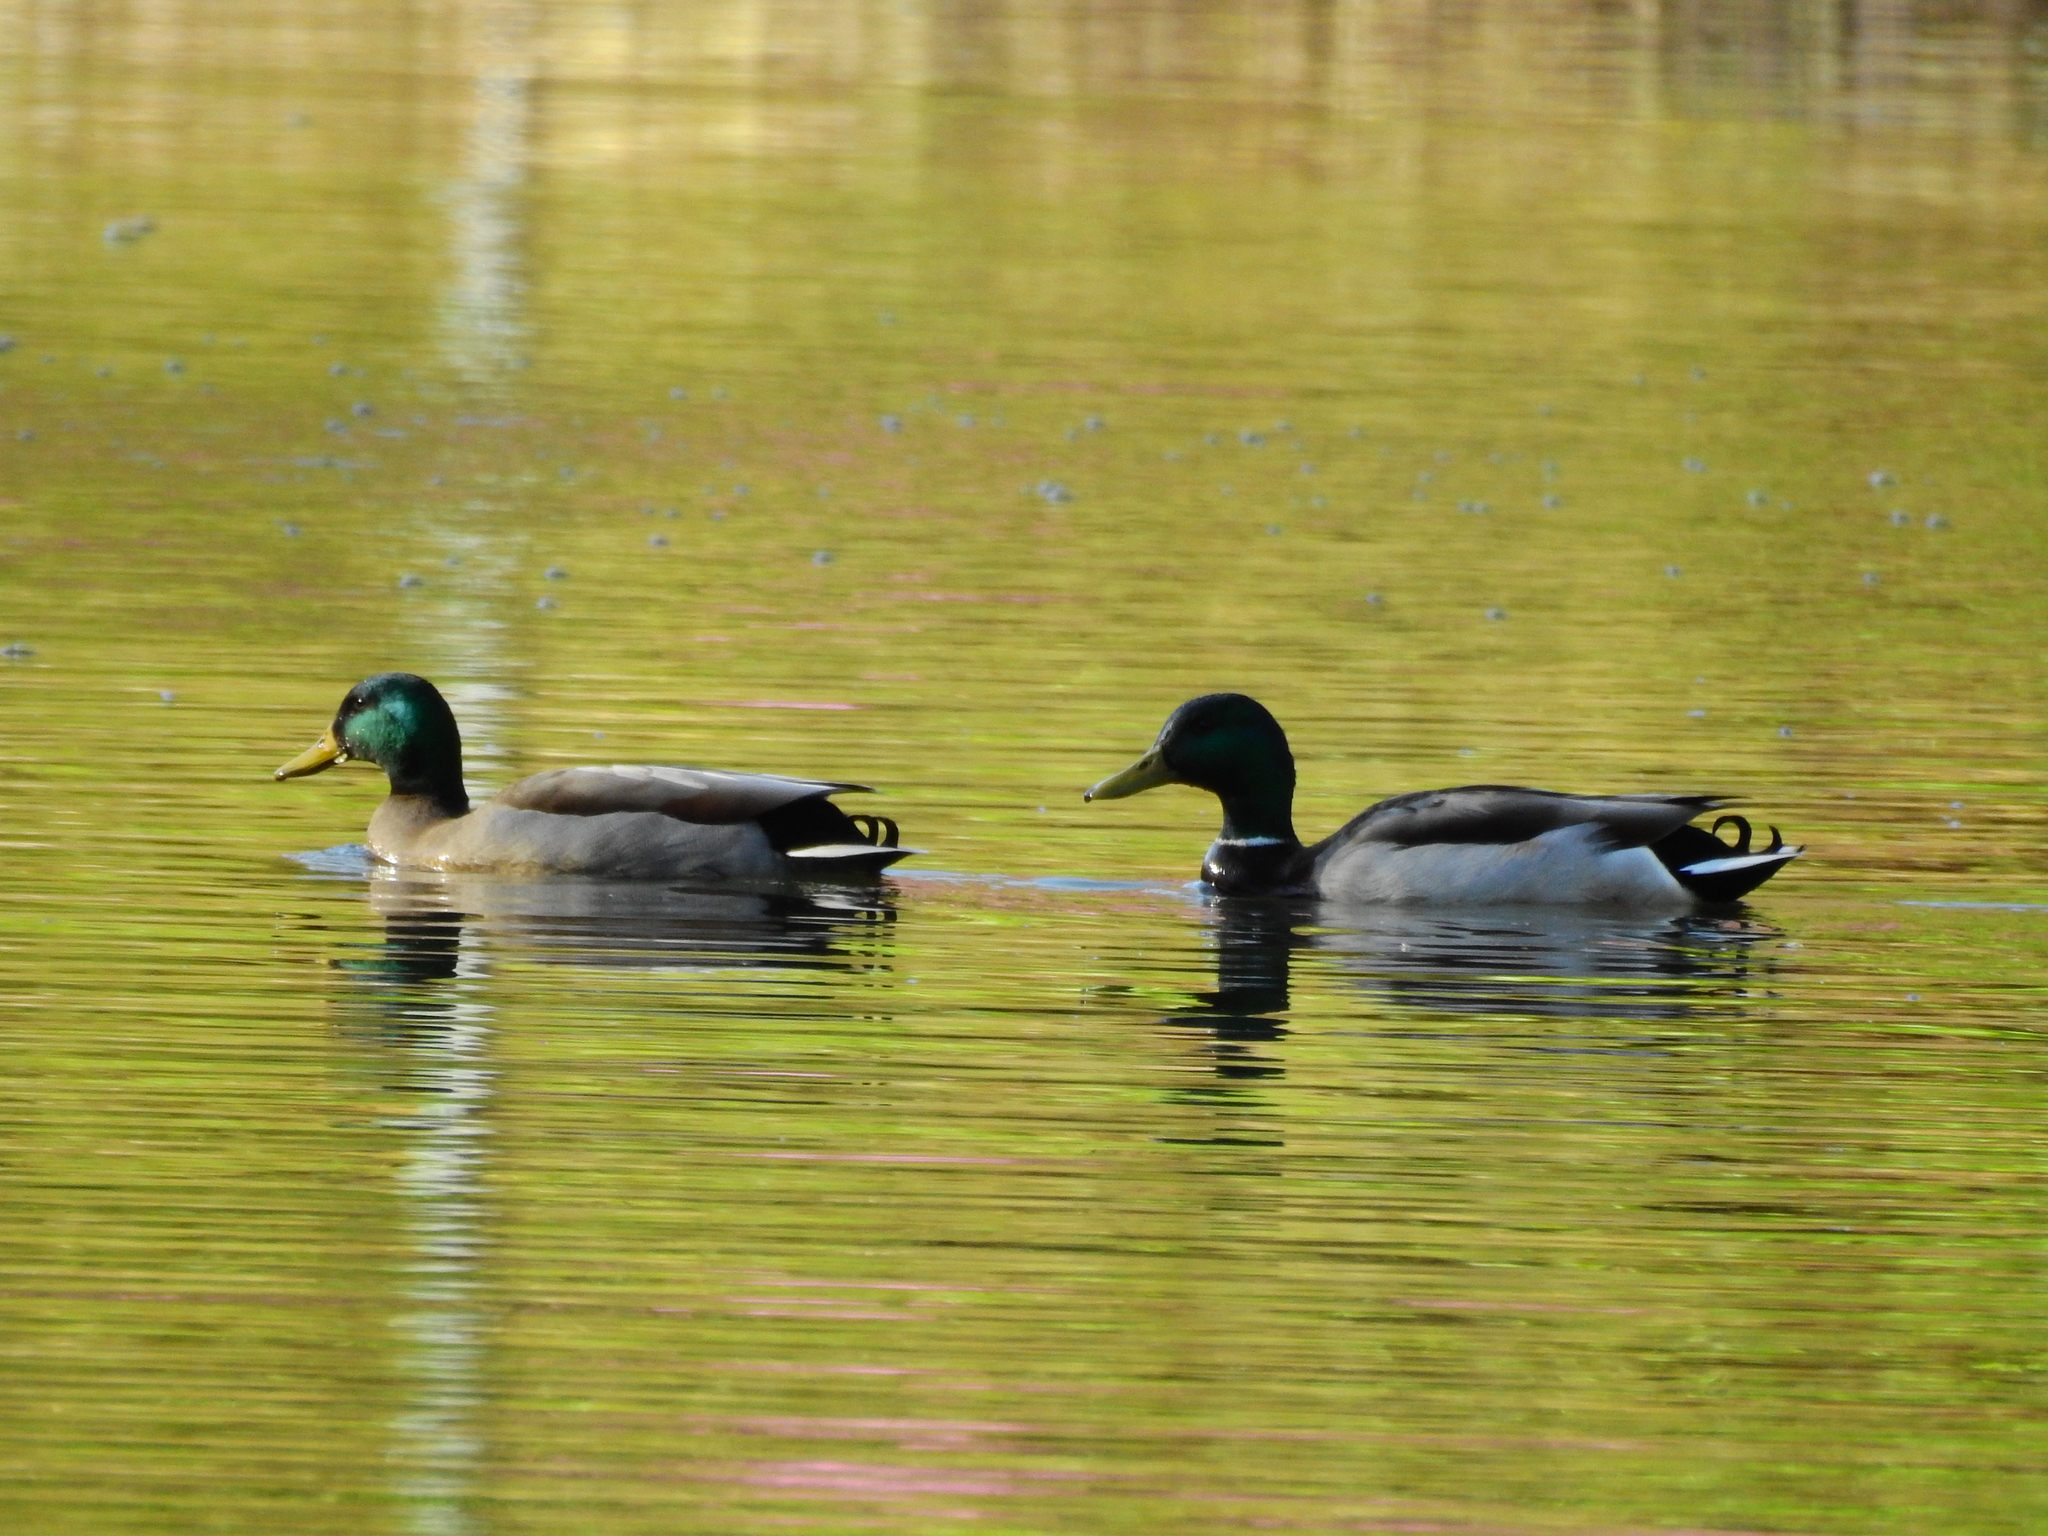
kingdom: Animalia
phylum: Chordata
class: Aves
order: Anseriformes
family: Anatidae
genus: Anas
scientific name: Anas platyrhynchos
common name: Mallard
